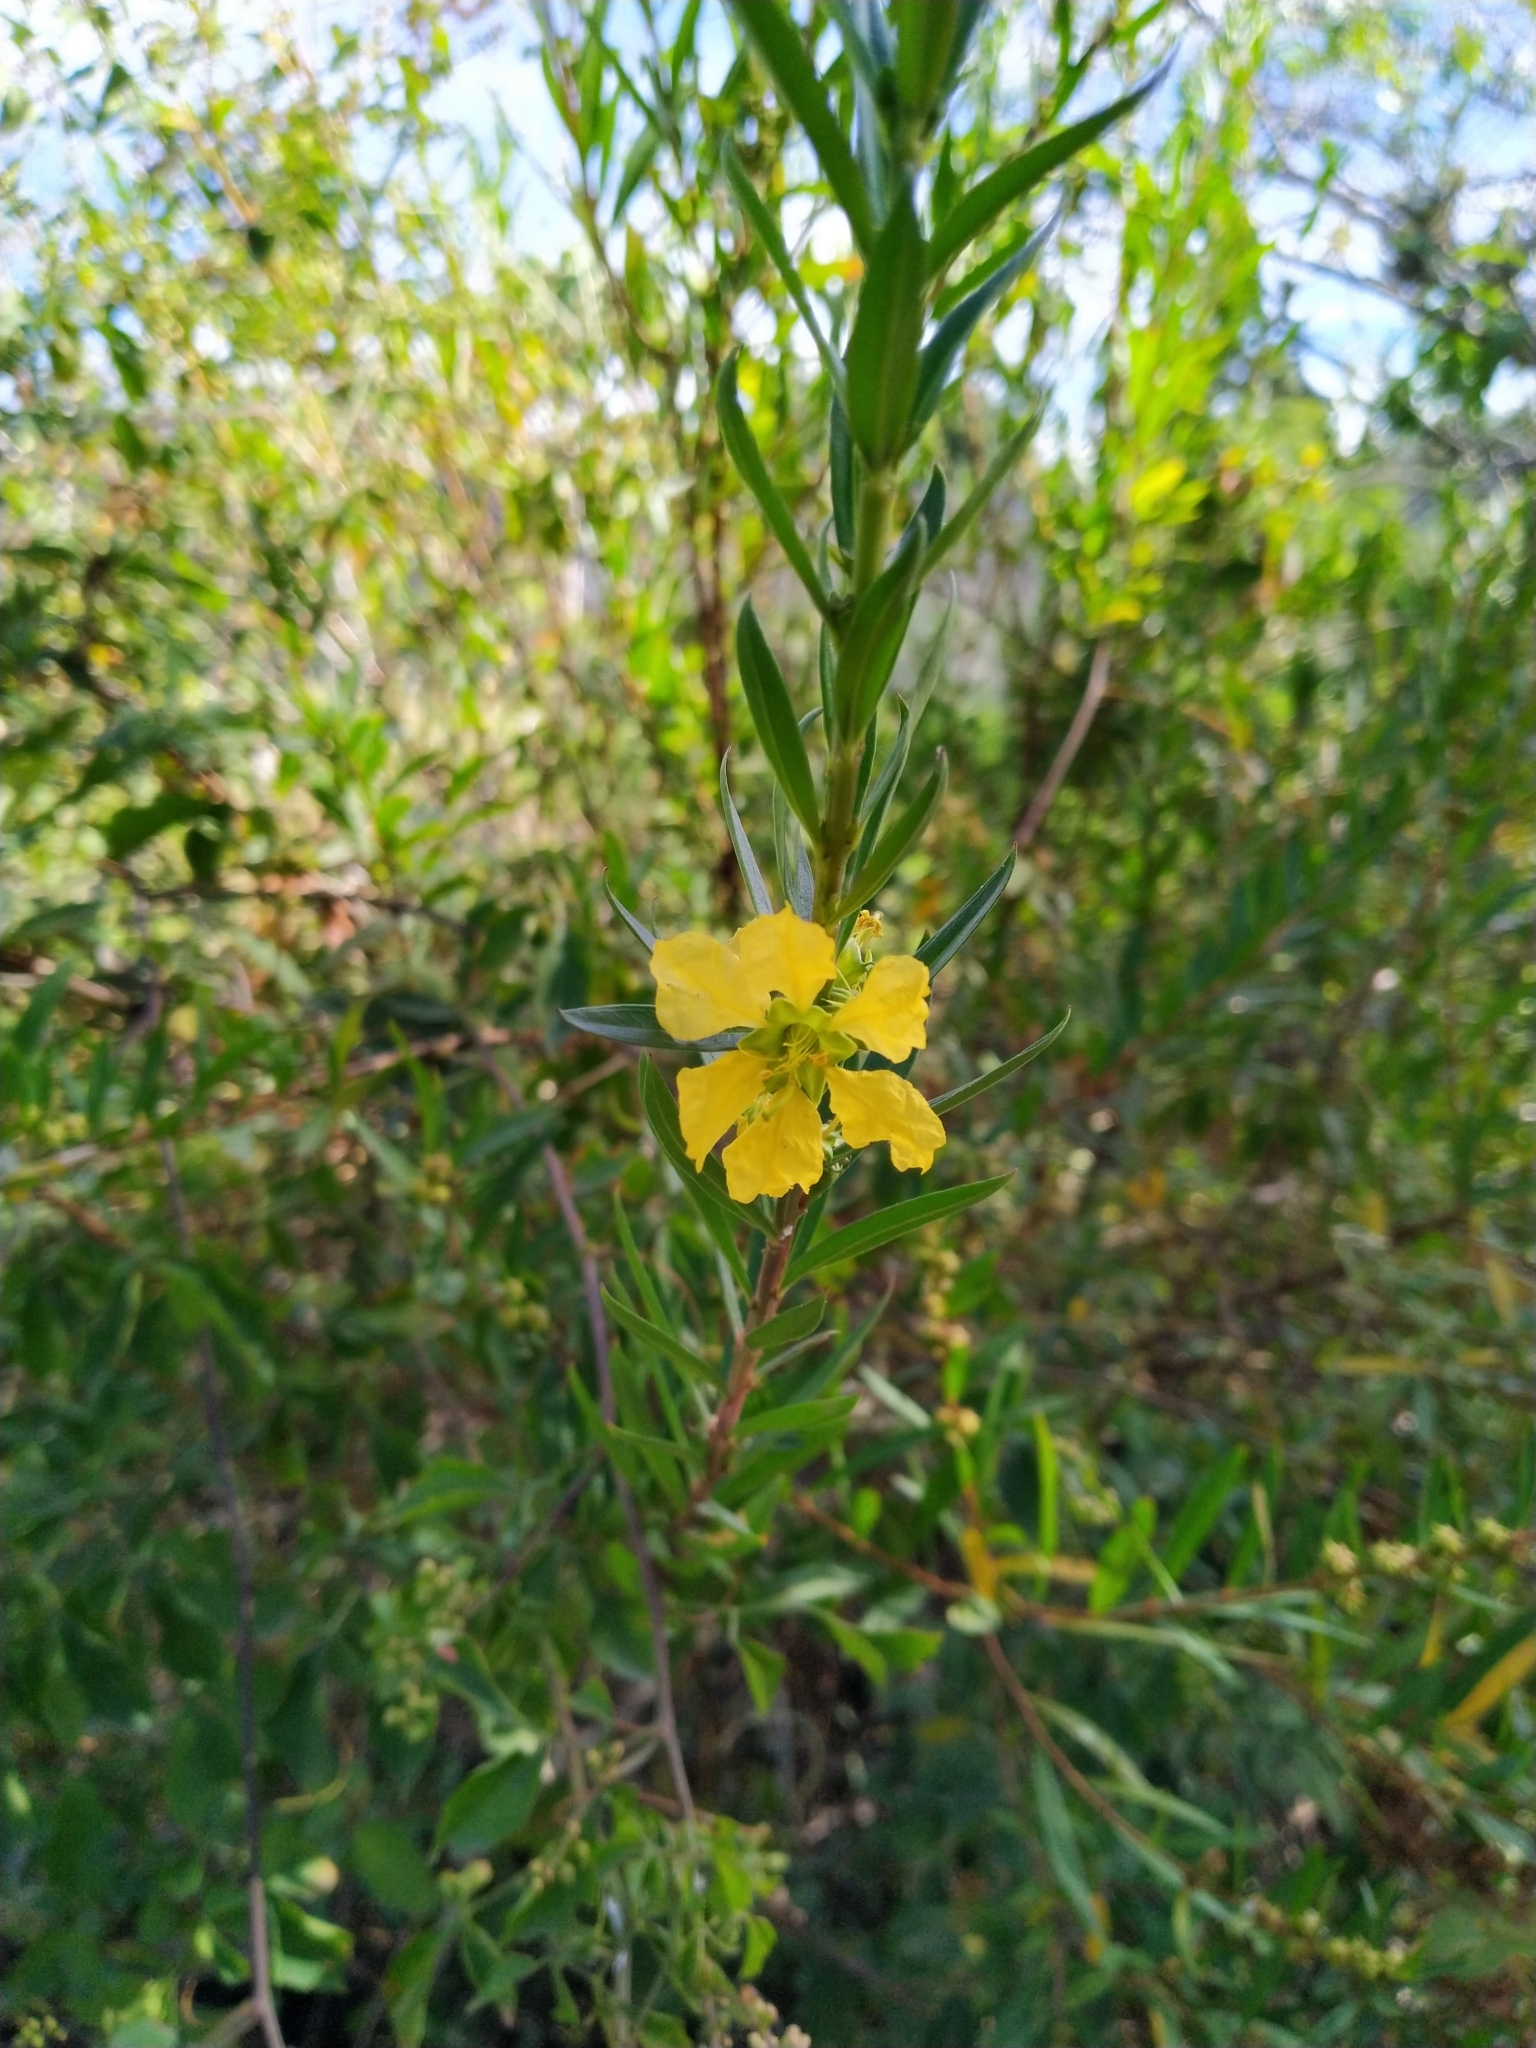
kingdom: Plantae
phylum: Tracheophyta
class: Magnoliopsida
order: Myrtales
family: Lythraceae
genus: Heimia
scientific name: Heimia salicifolia
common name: Willow-leaf heimia
